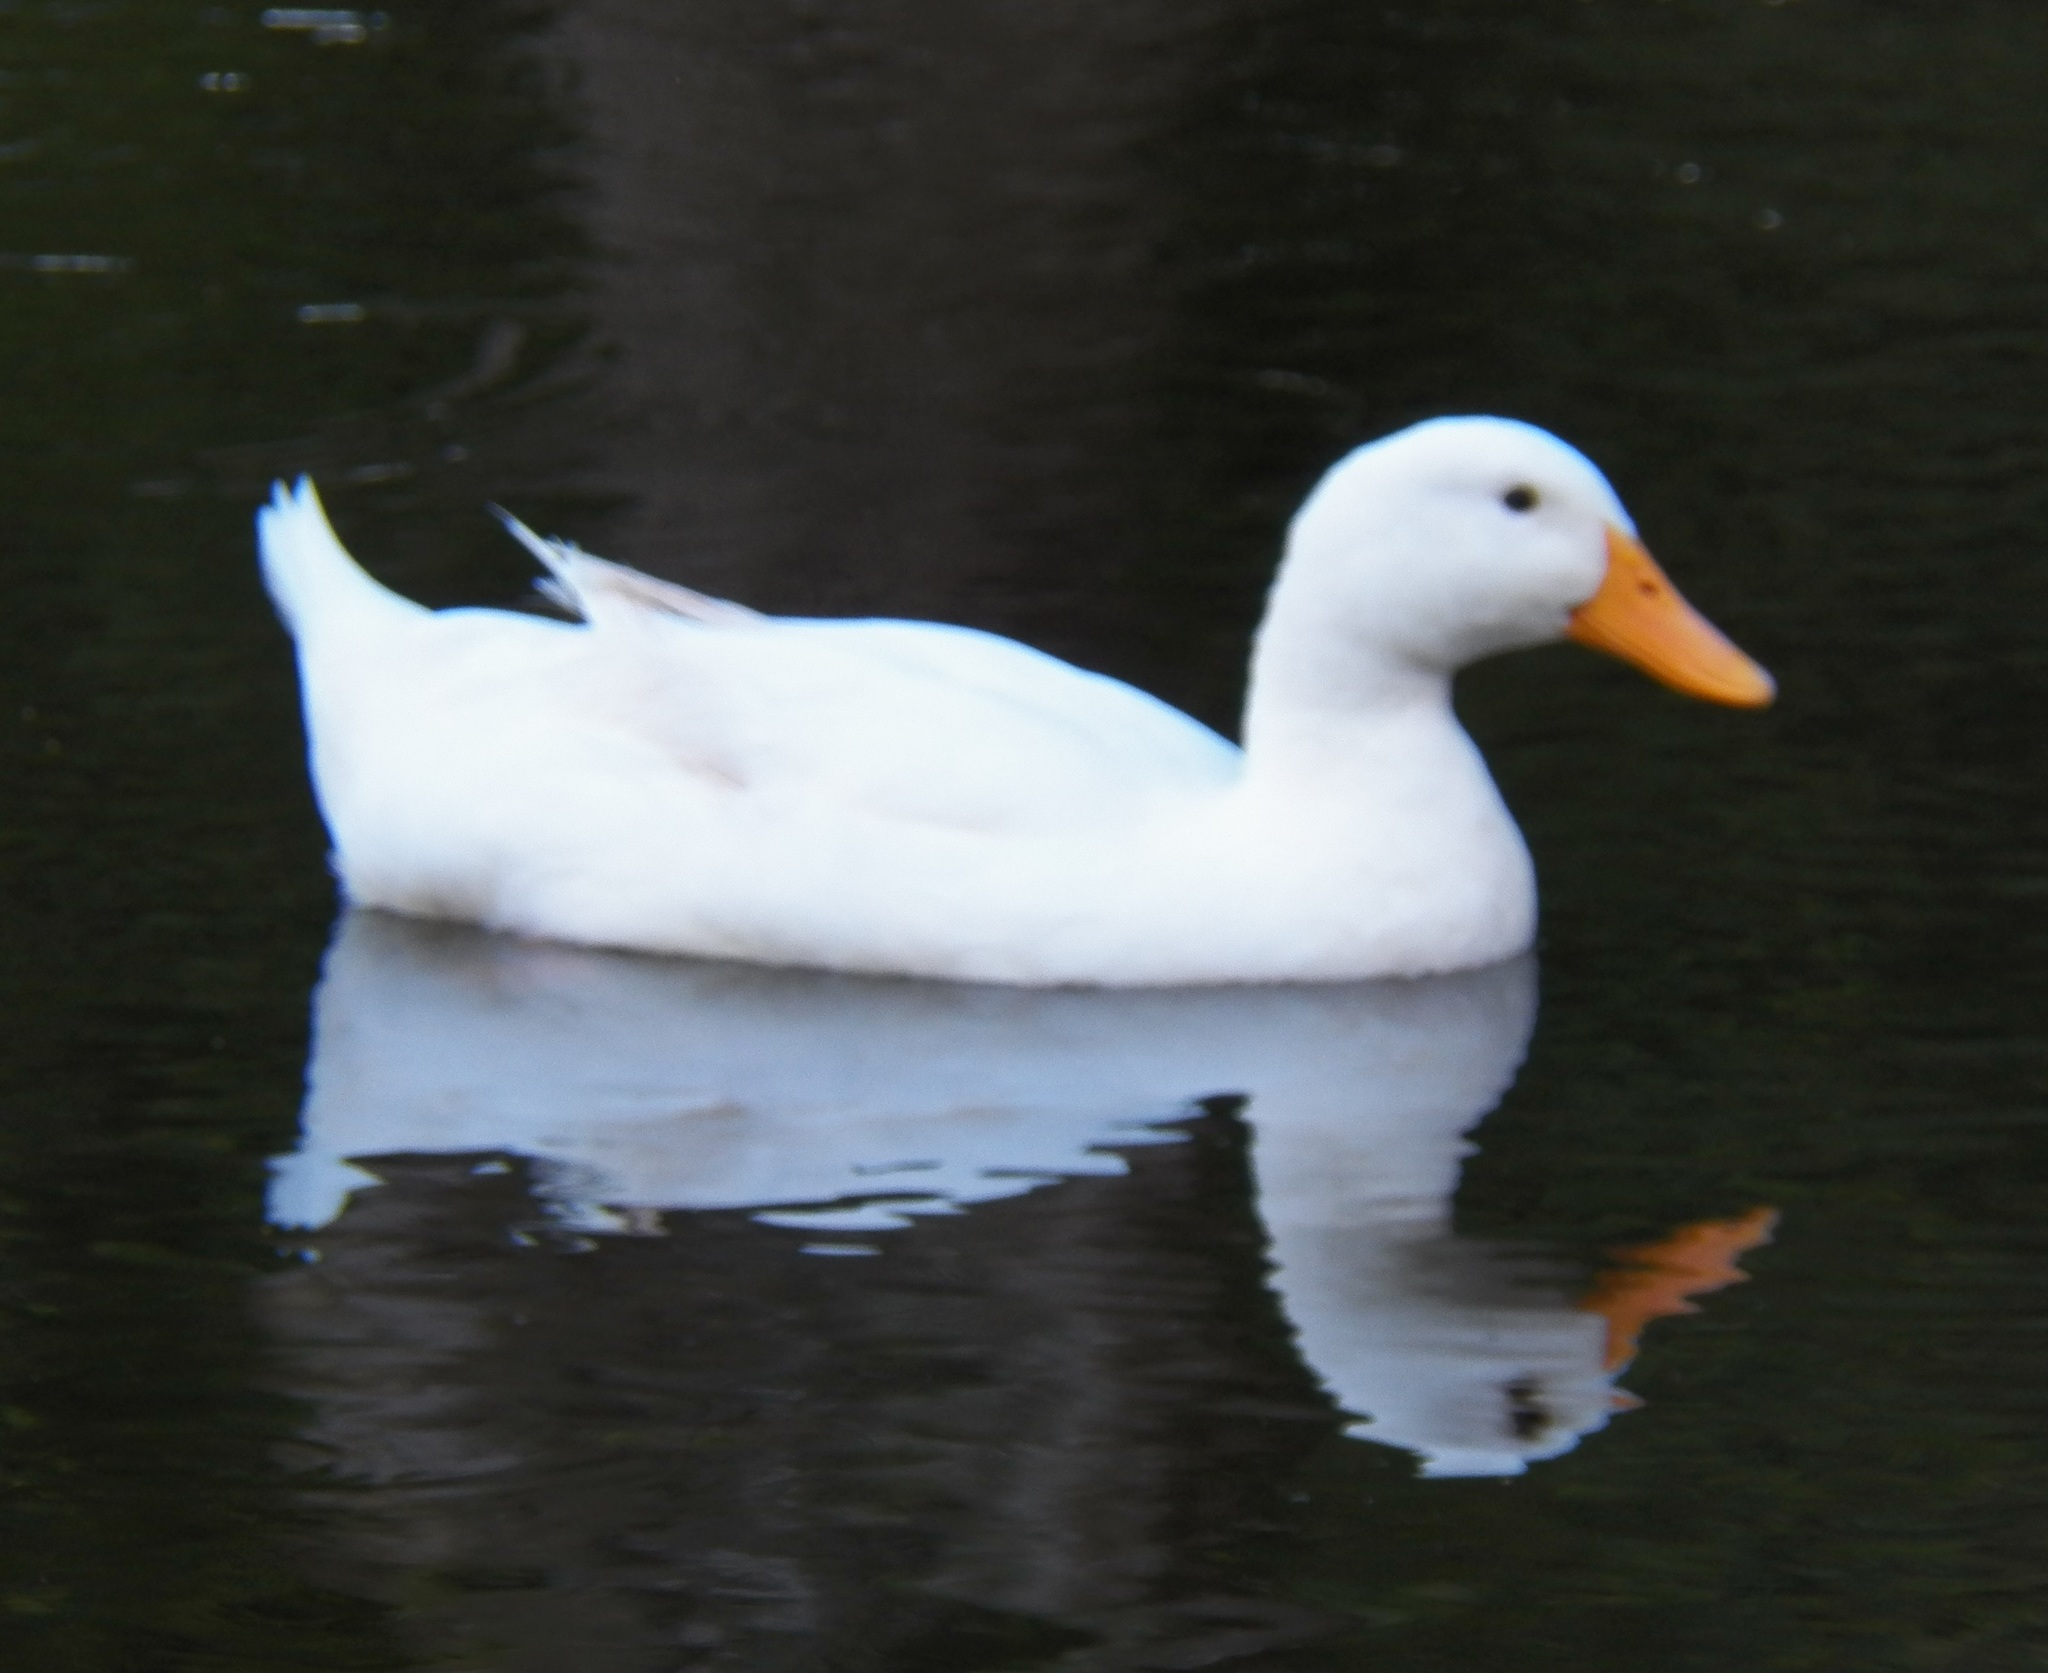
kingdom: Animalia
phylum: Chordata
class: Aves
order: Anseriformes
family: Anatidae
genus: Anas
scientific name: Anas platyrhynchos
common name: Mallard
